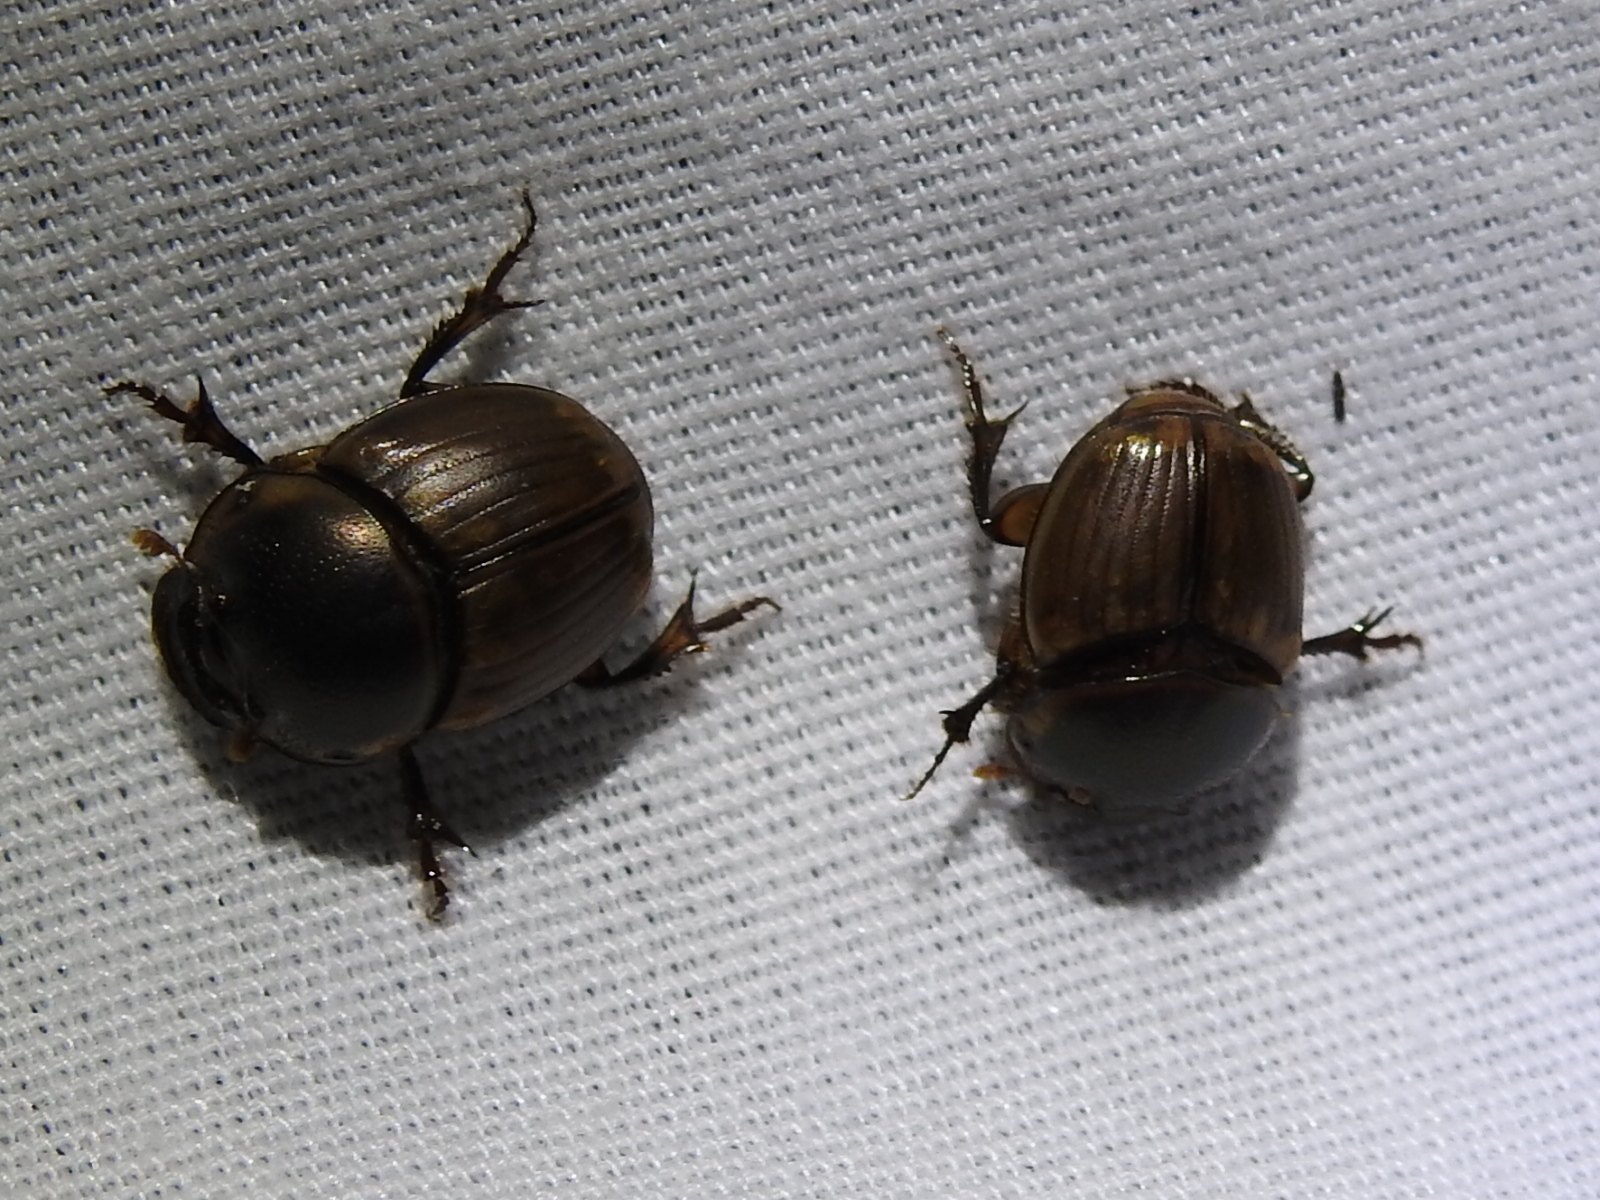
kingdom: Animalia
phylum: Arthropoda
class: Insecta
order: Coleoptera
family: Scarabaeidae
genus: Digitonthophagus
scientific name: Digitonthophagus gazella
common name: Brown dung beetle
